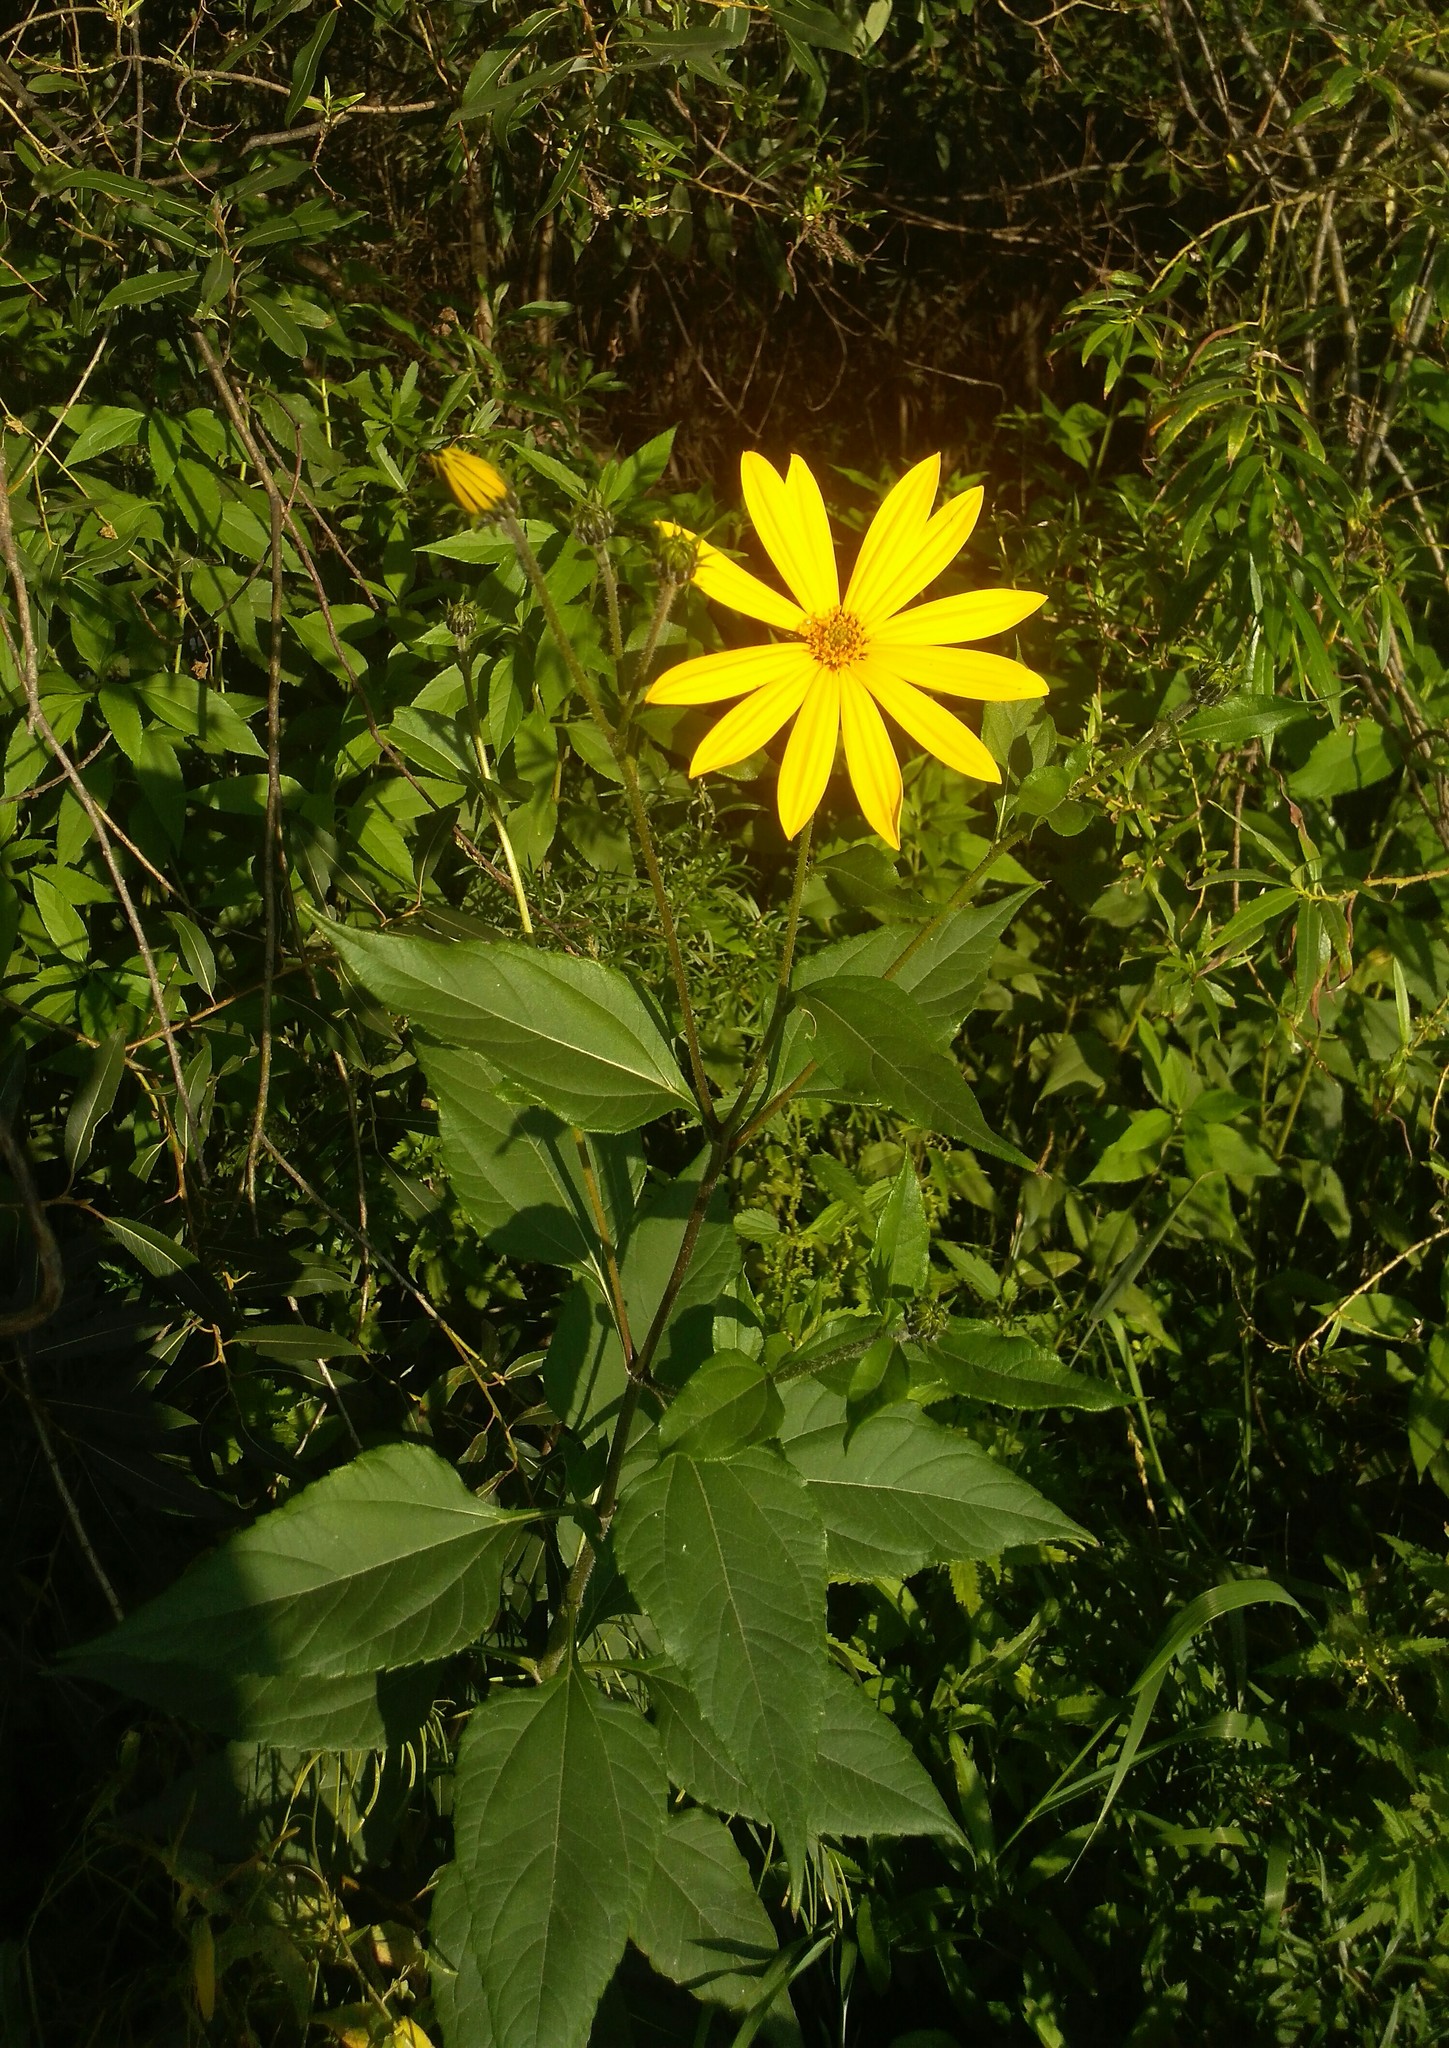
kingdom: Plantae
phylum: Tracheophyta
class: Magnoliopsida
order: Asterales
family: Asteraceae
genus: Helianthus
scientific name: Helianthus tuberosus
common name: Jerusalem artichoke
